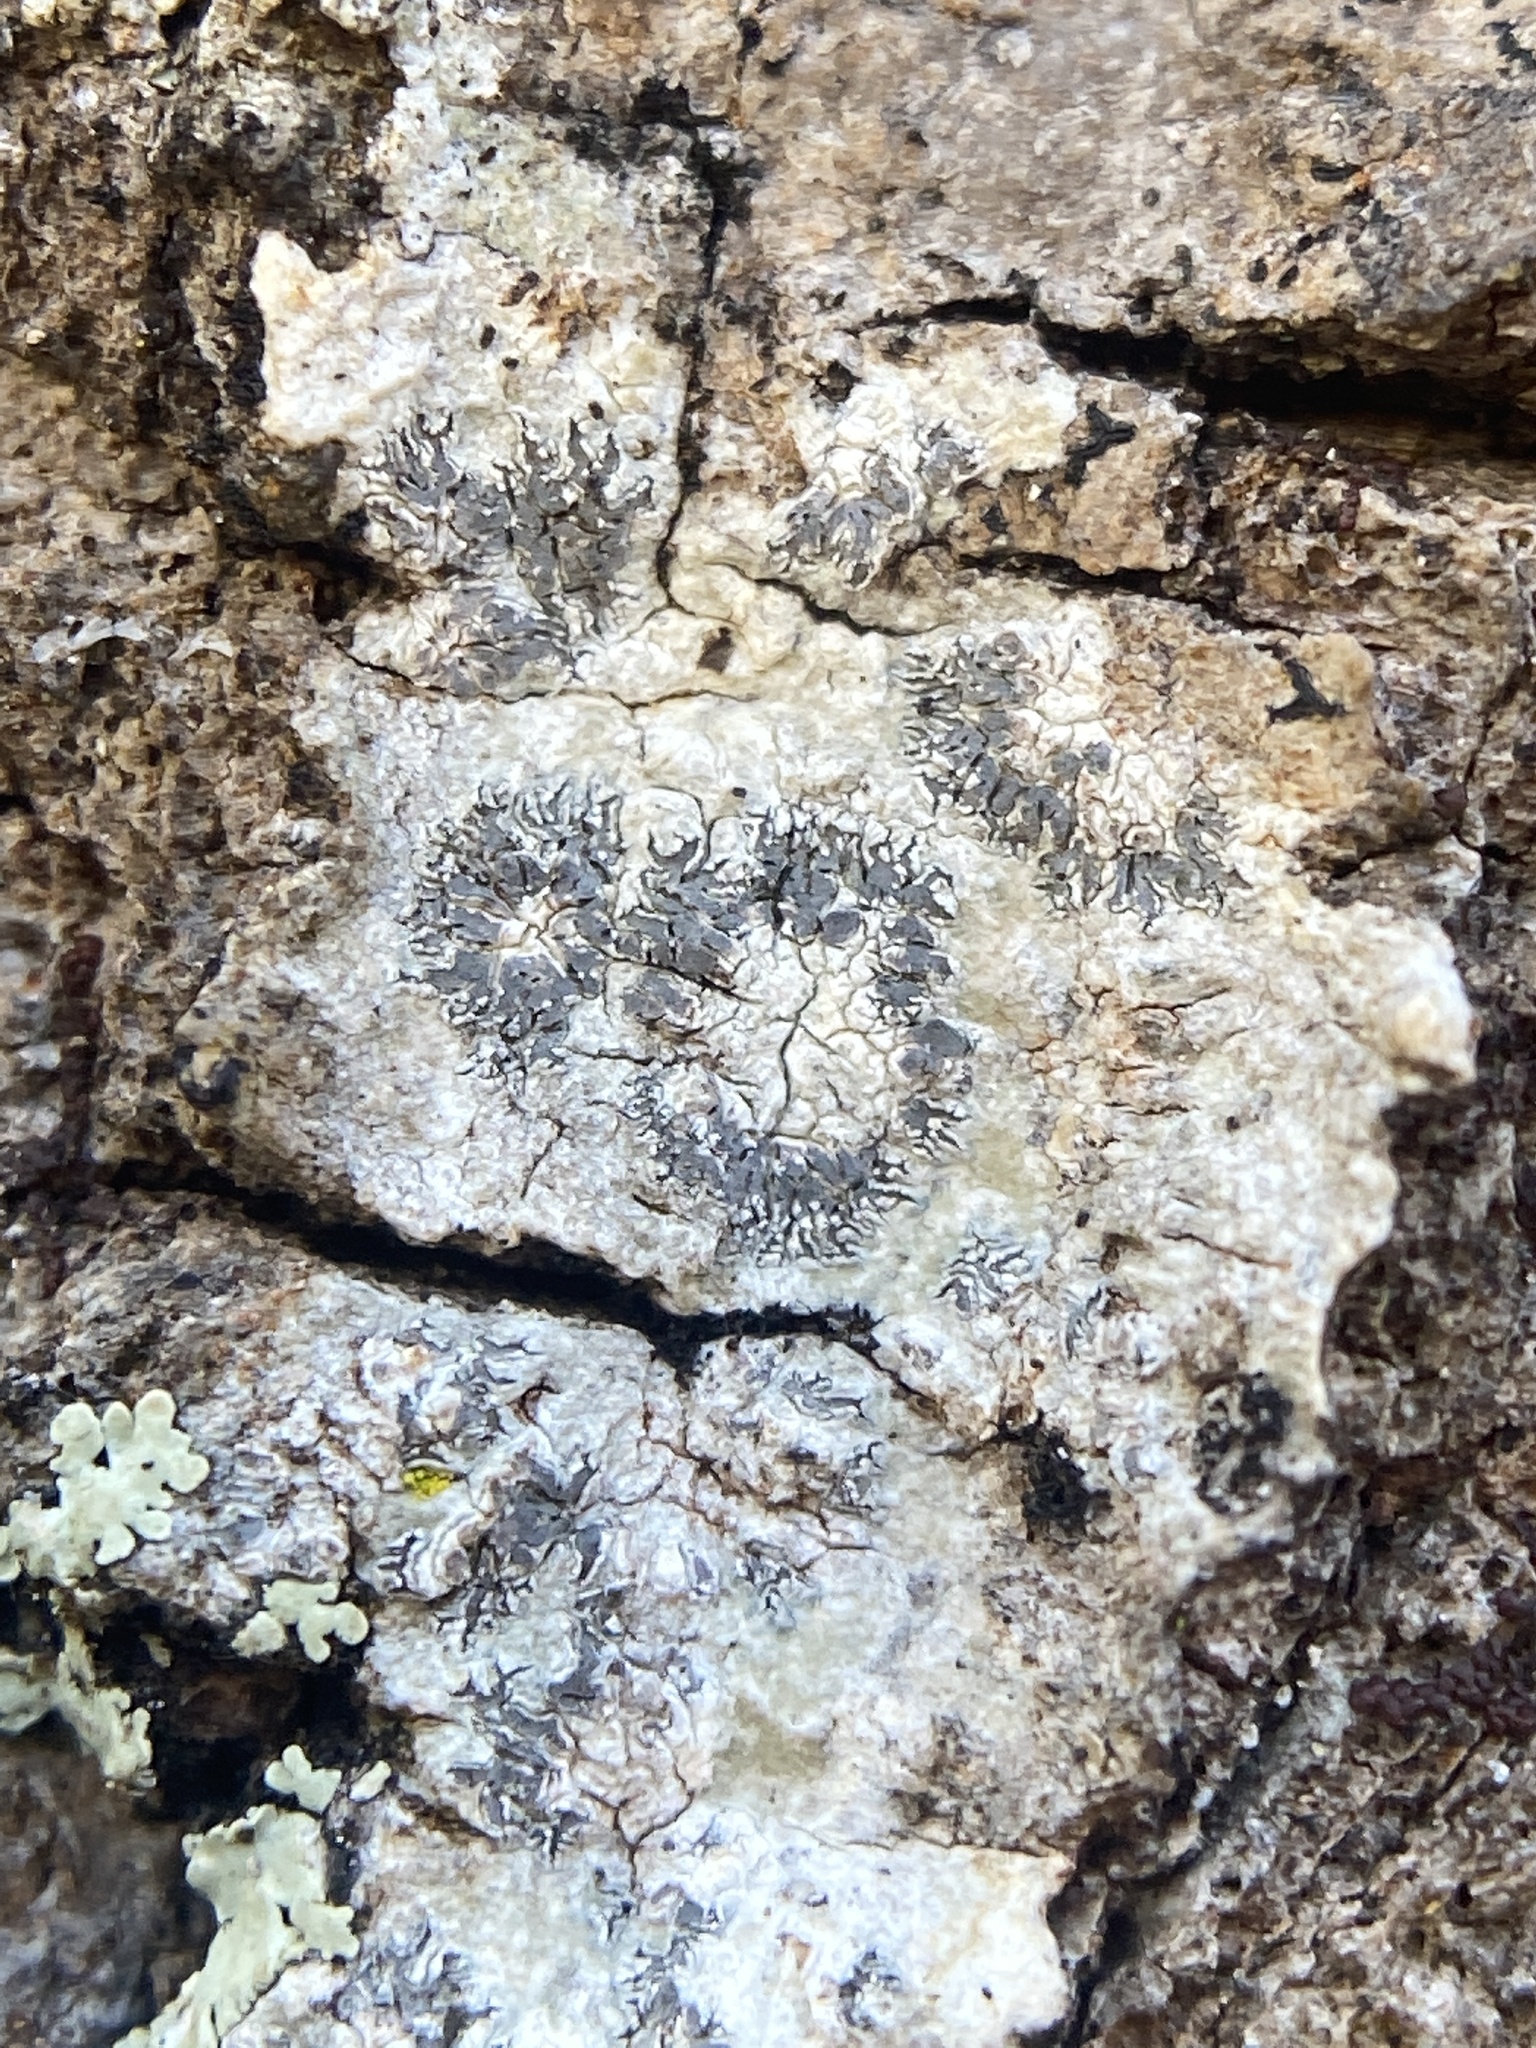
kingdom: Fungi
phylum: Ascomycota
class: Lecanoromycetes
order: Ostropales
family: Graphidaceae
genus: Creographa
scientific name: Creographa brasiliensis
